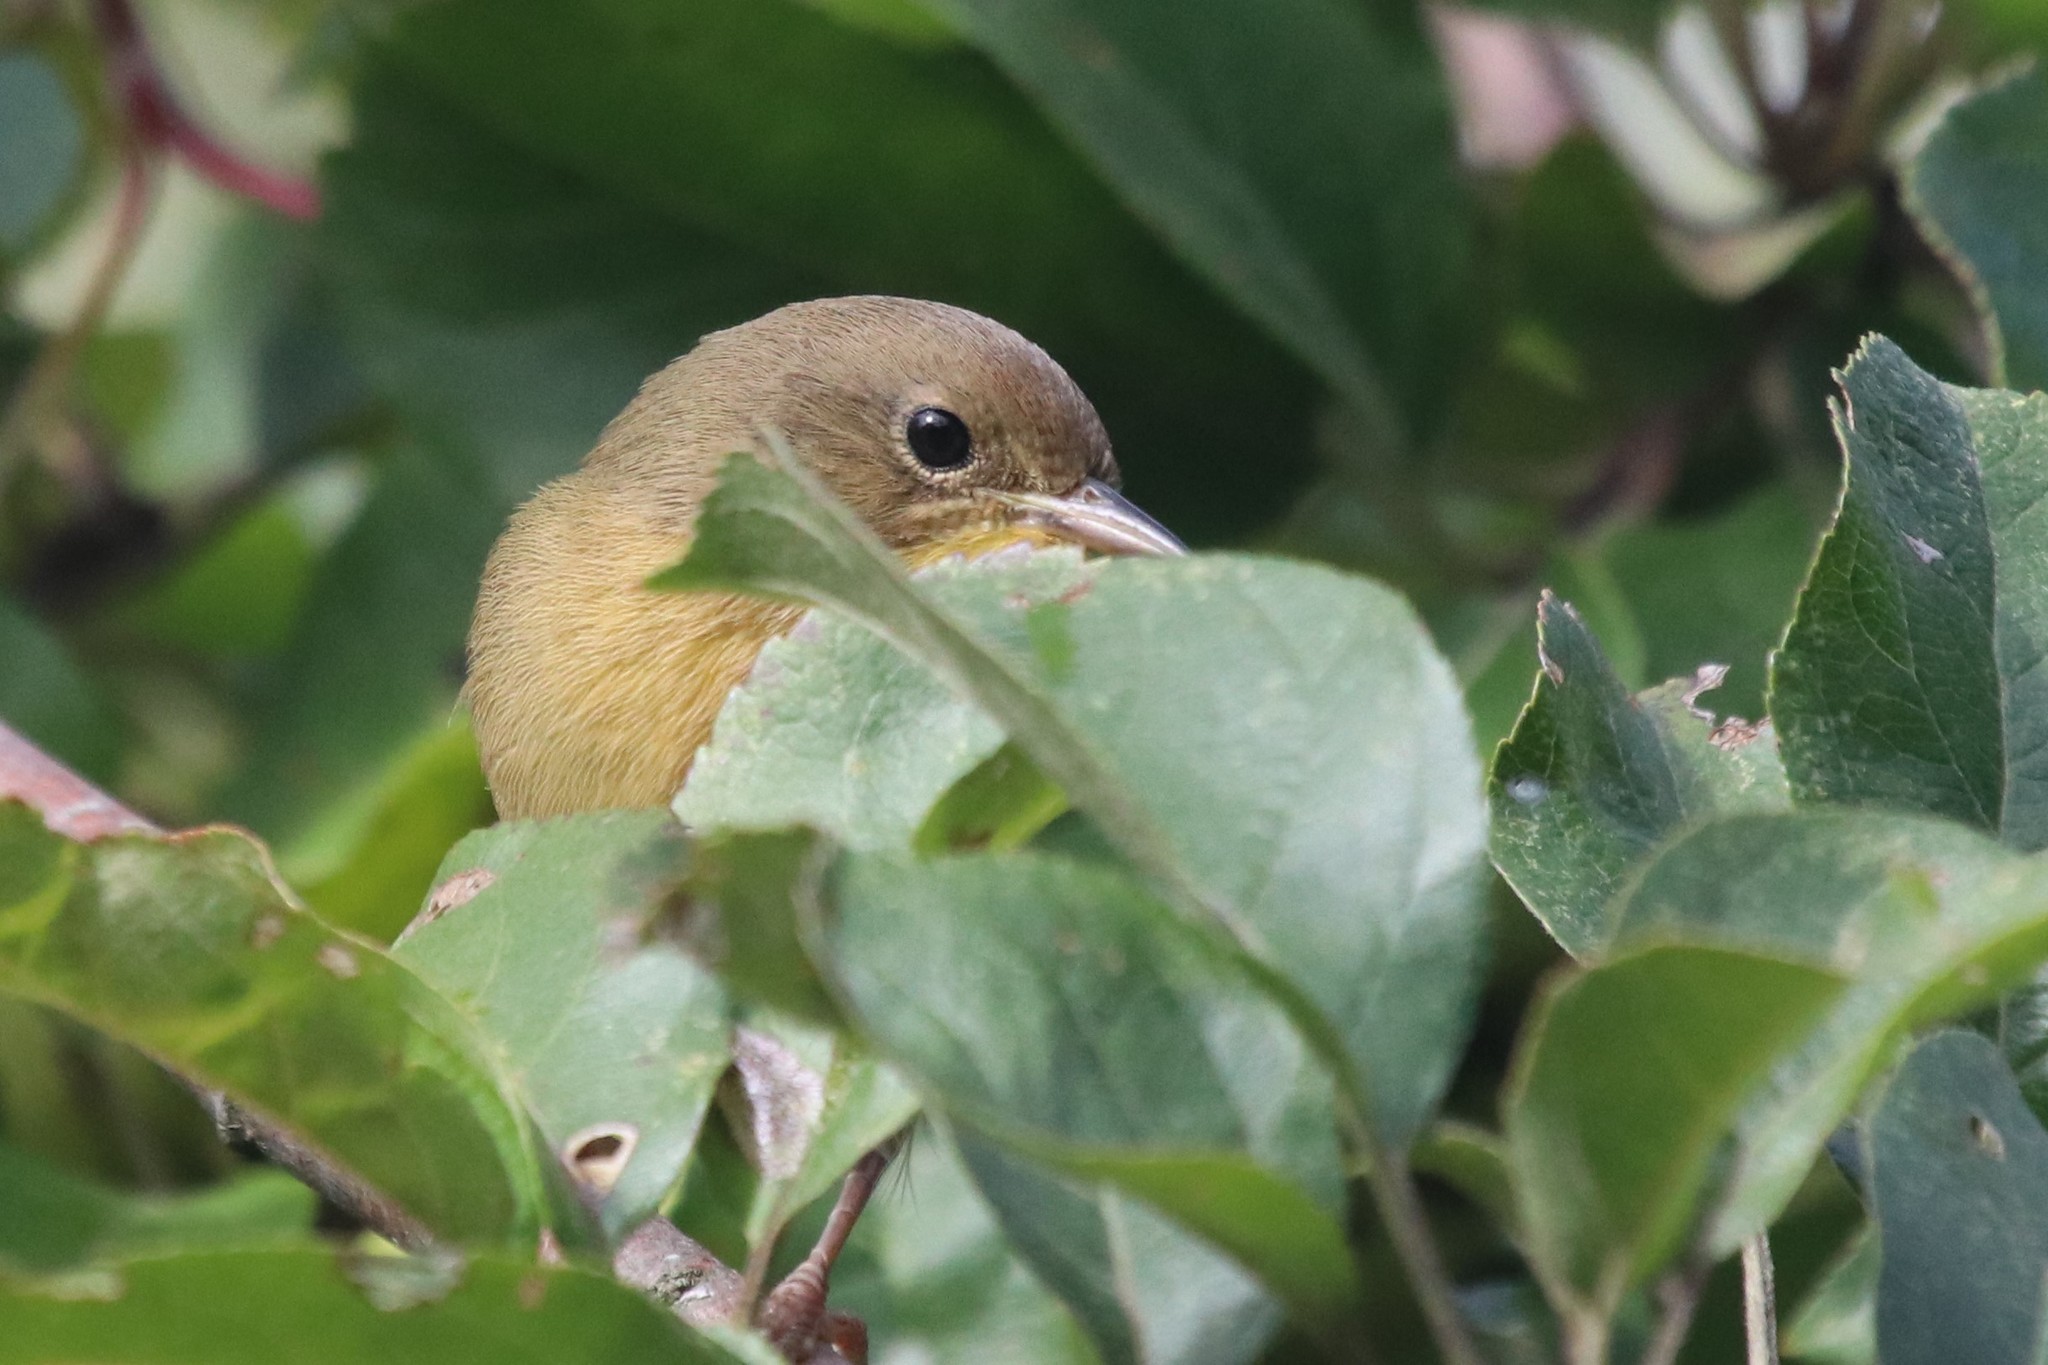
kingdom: Animalia
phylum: Chordata
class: Aves
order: Passeriformes
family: Parulidae
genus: Geothlypis
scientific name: Geothlypis trichas
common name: Common yellowthroat
